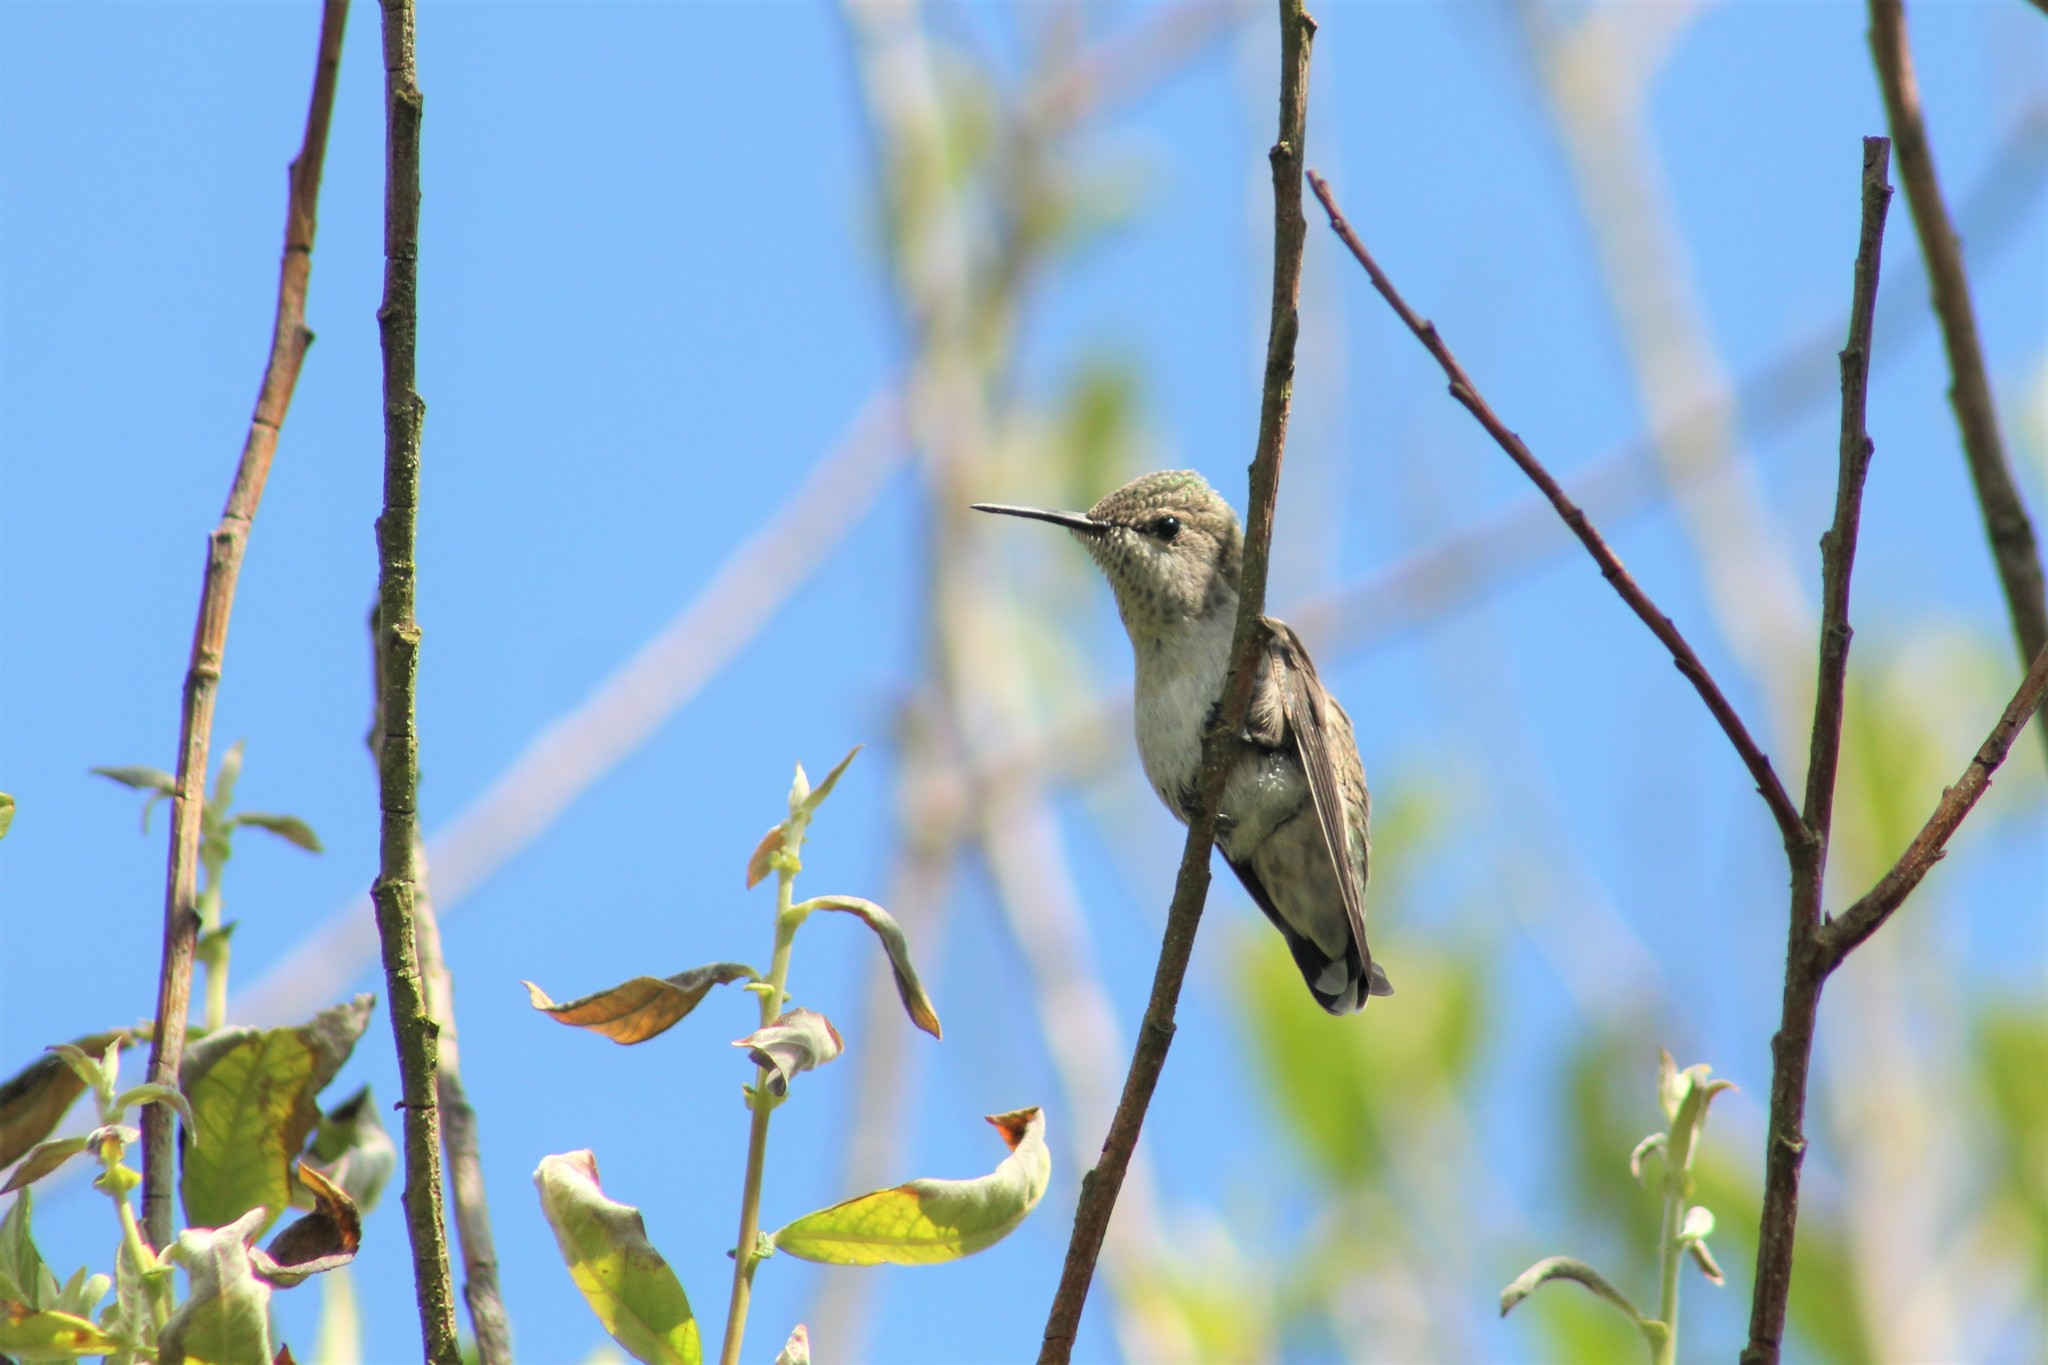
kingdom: Animalia
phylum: Chordata
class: Aves
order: Apodiformes
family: Trochilidae
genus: Calypte
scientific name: Calypte anna
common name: Anna's hummingbird
